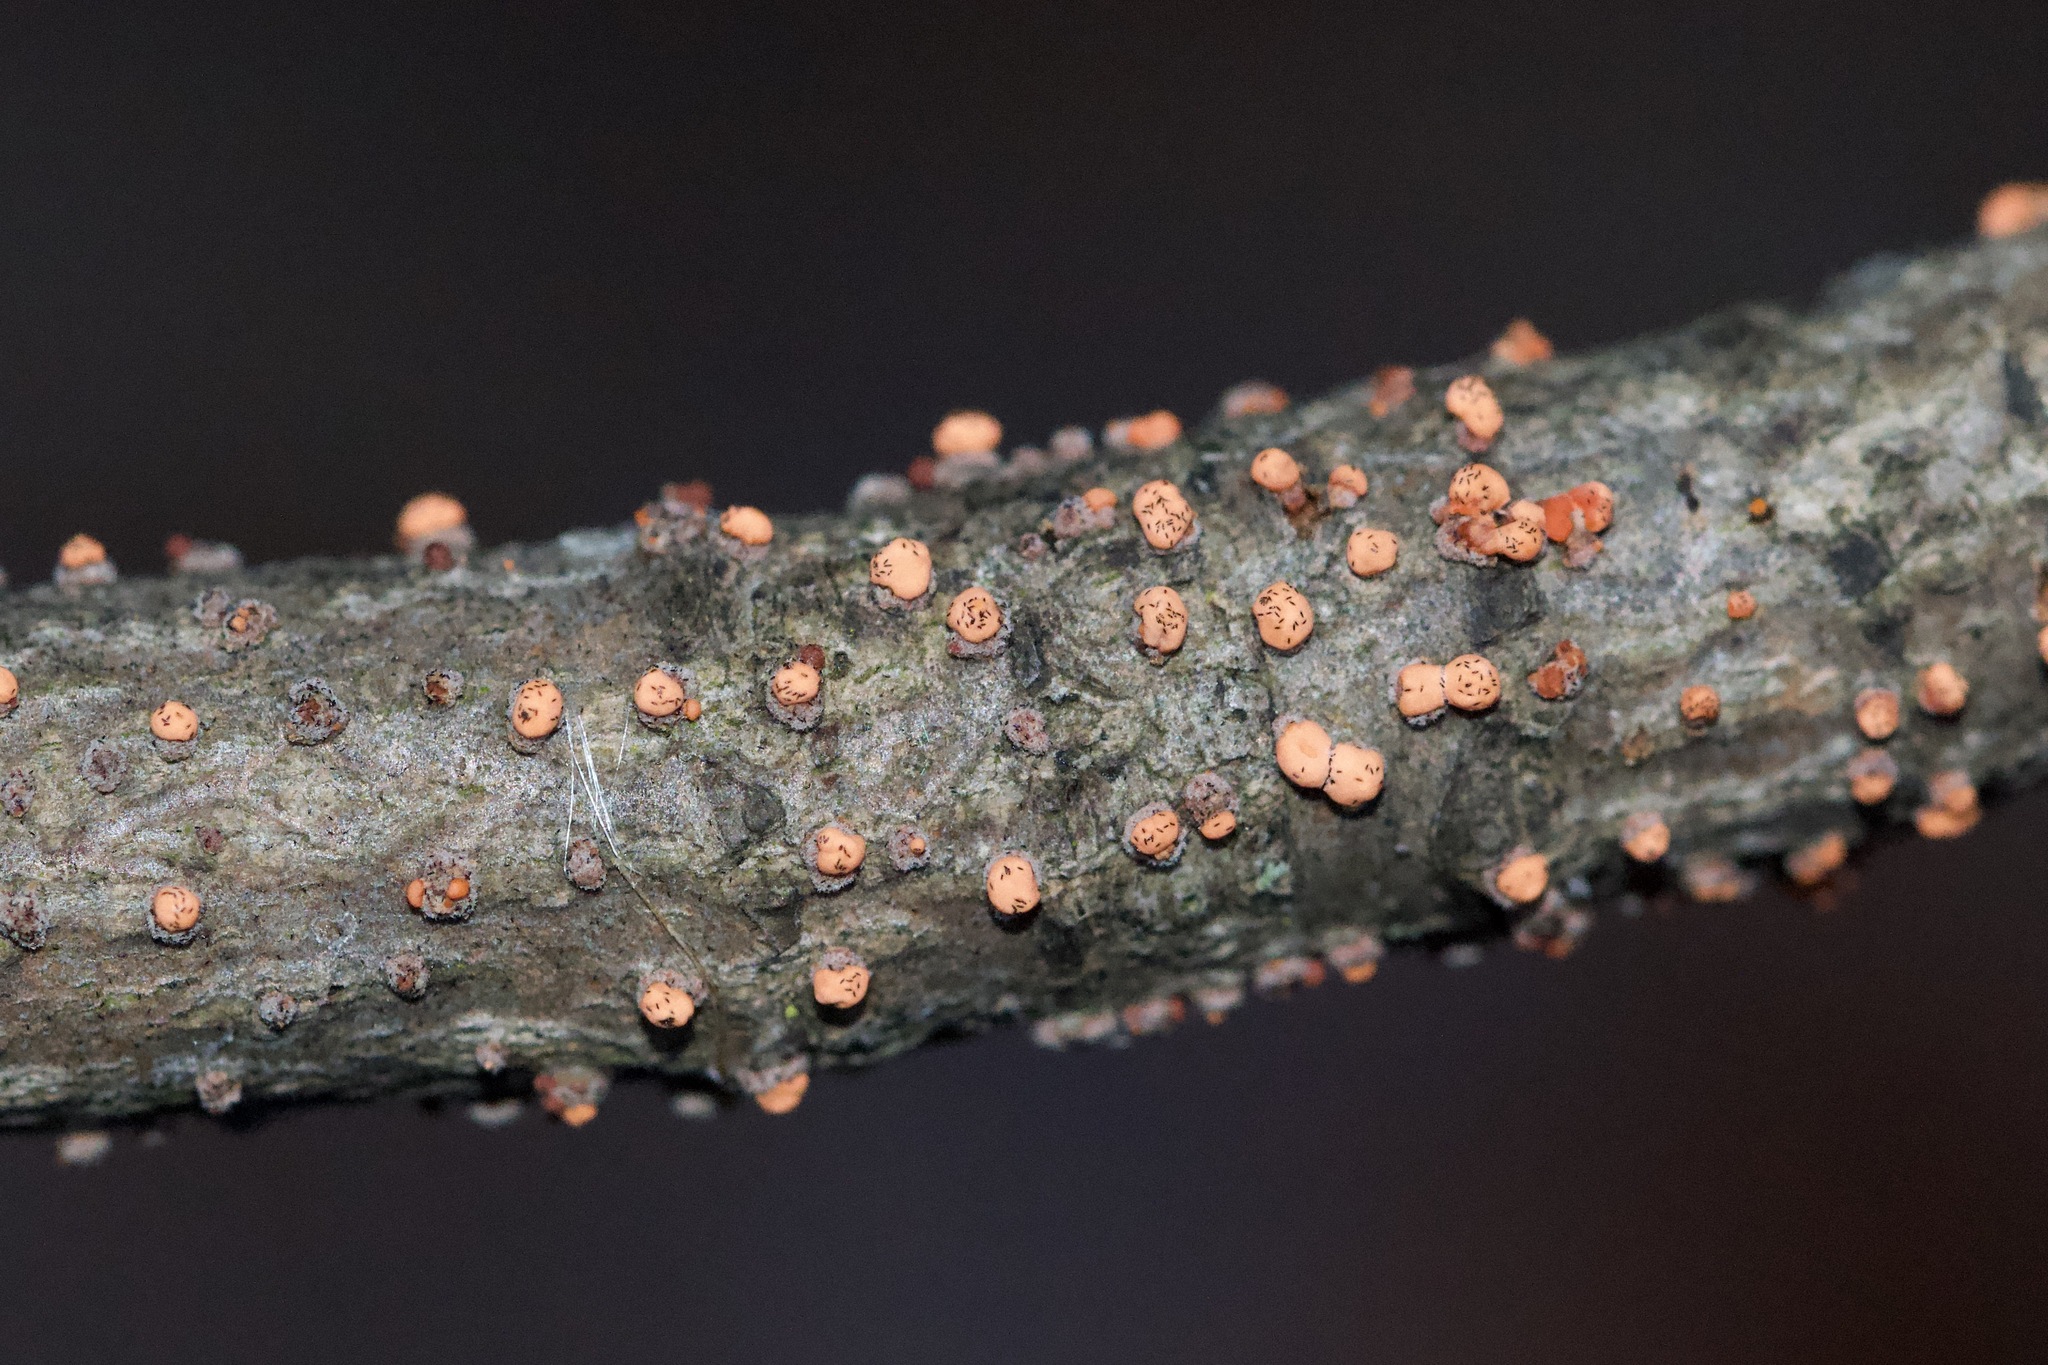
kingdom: Fungi
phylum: Ascomycota
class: Sordariomycetes
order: Hypocreales
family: Nectriaceae
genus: Nectria
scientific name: Nectria cinnabarina
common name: Coral spot
